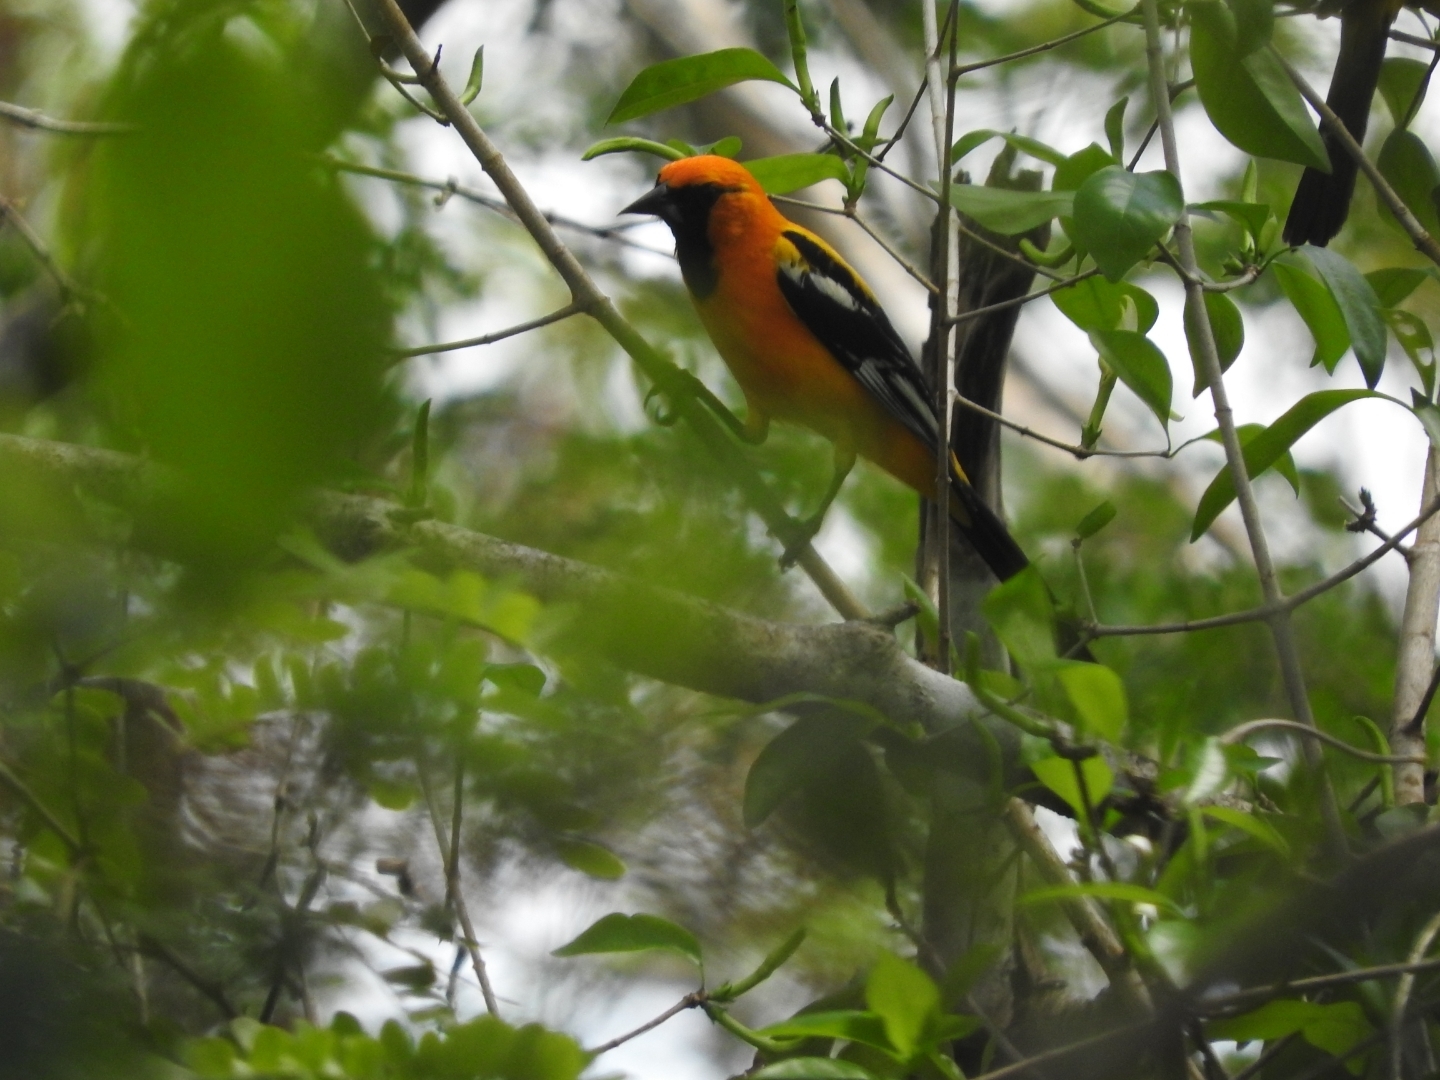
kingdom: Animalia
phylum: Chordata
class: Aves
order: Passeriformes
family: Icteridae
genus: Icterus
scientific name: Icterus auratus
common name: Orange oriole
